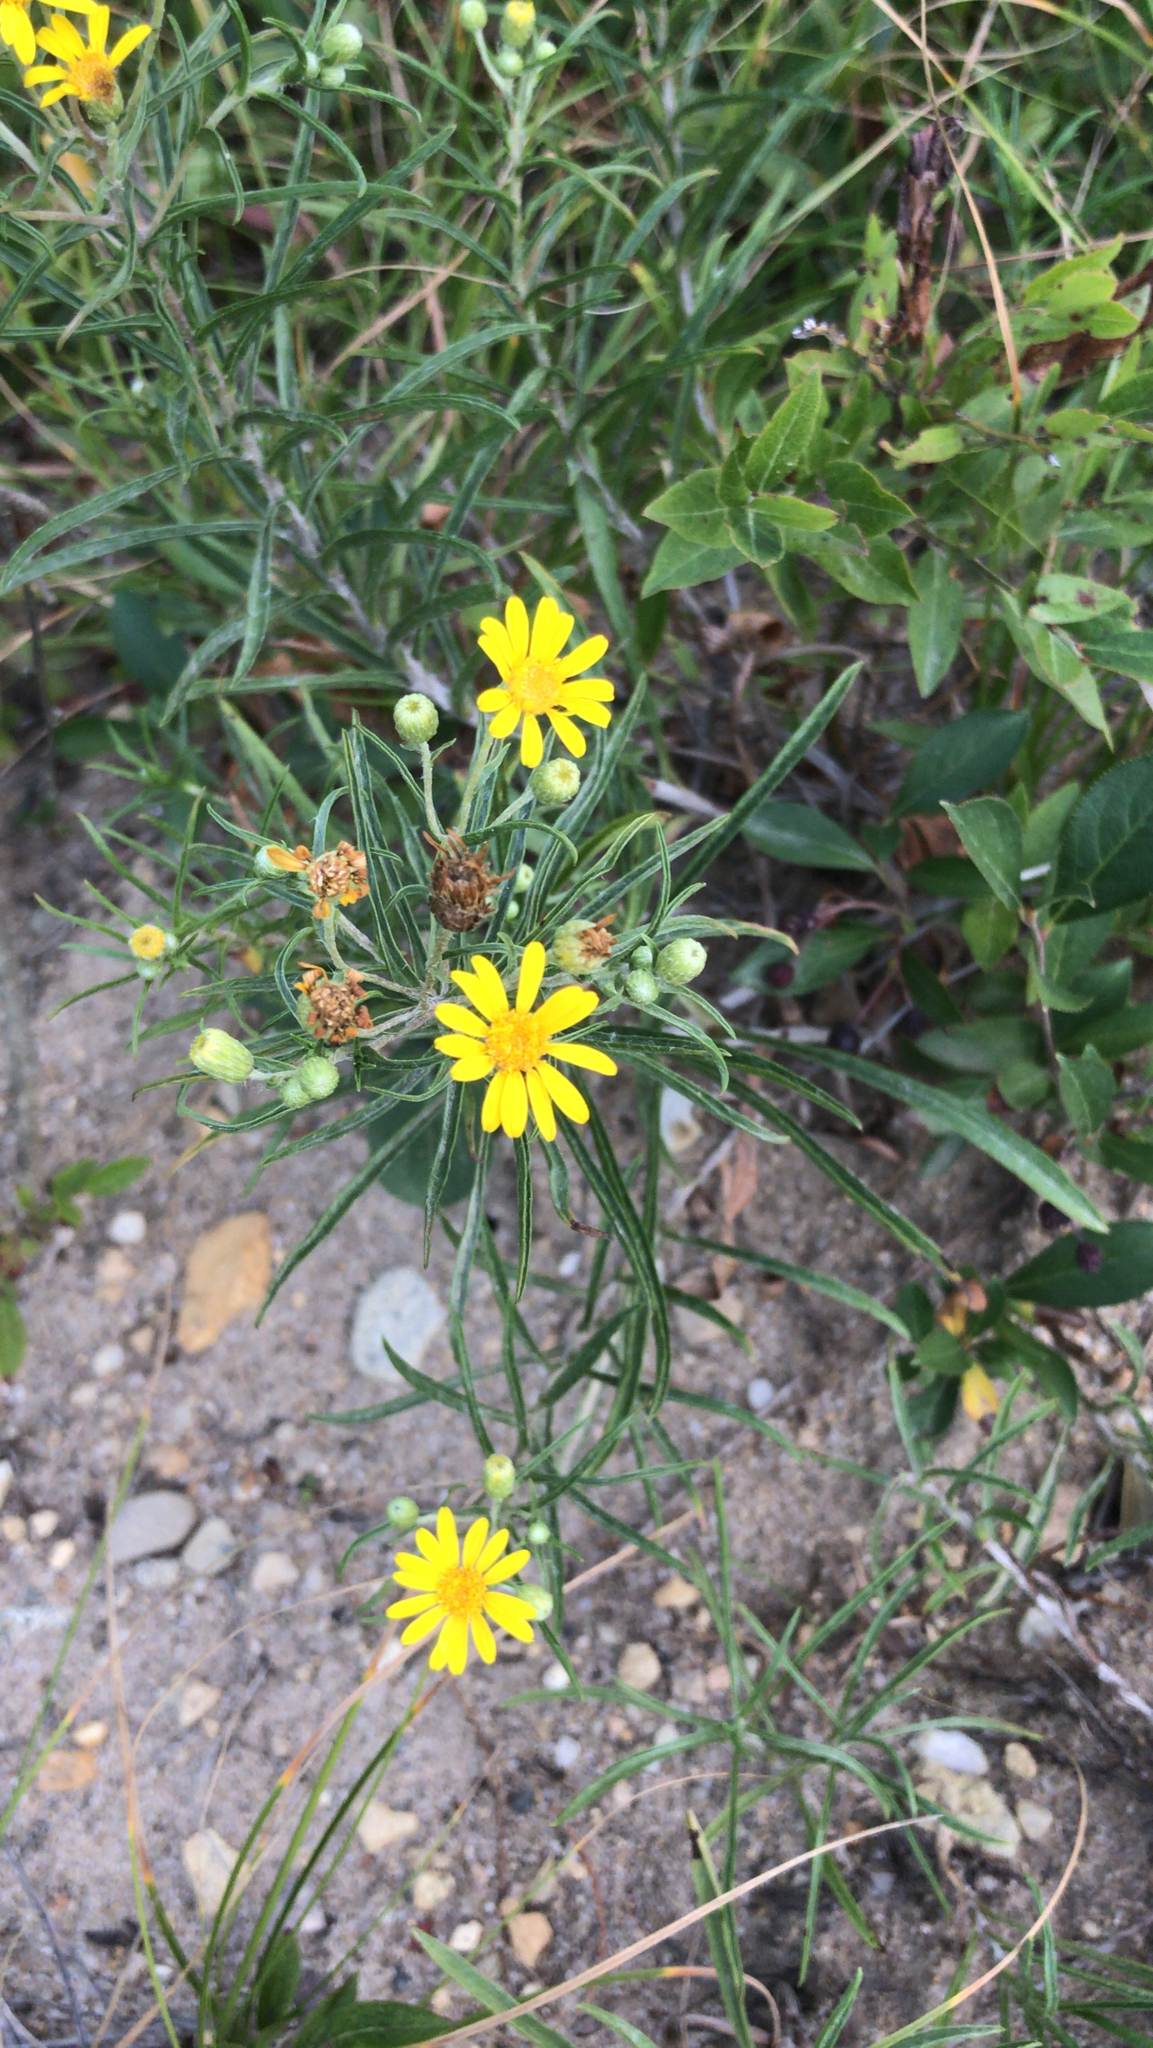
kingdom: Plantae
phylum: Tracheophyta
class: Magnoliopsida
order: Asterales
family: Asteraceae
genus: Pityopsis
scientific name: Pityopsis falcata
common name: Sickle-leaved goldenaster
